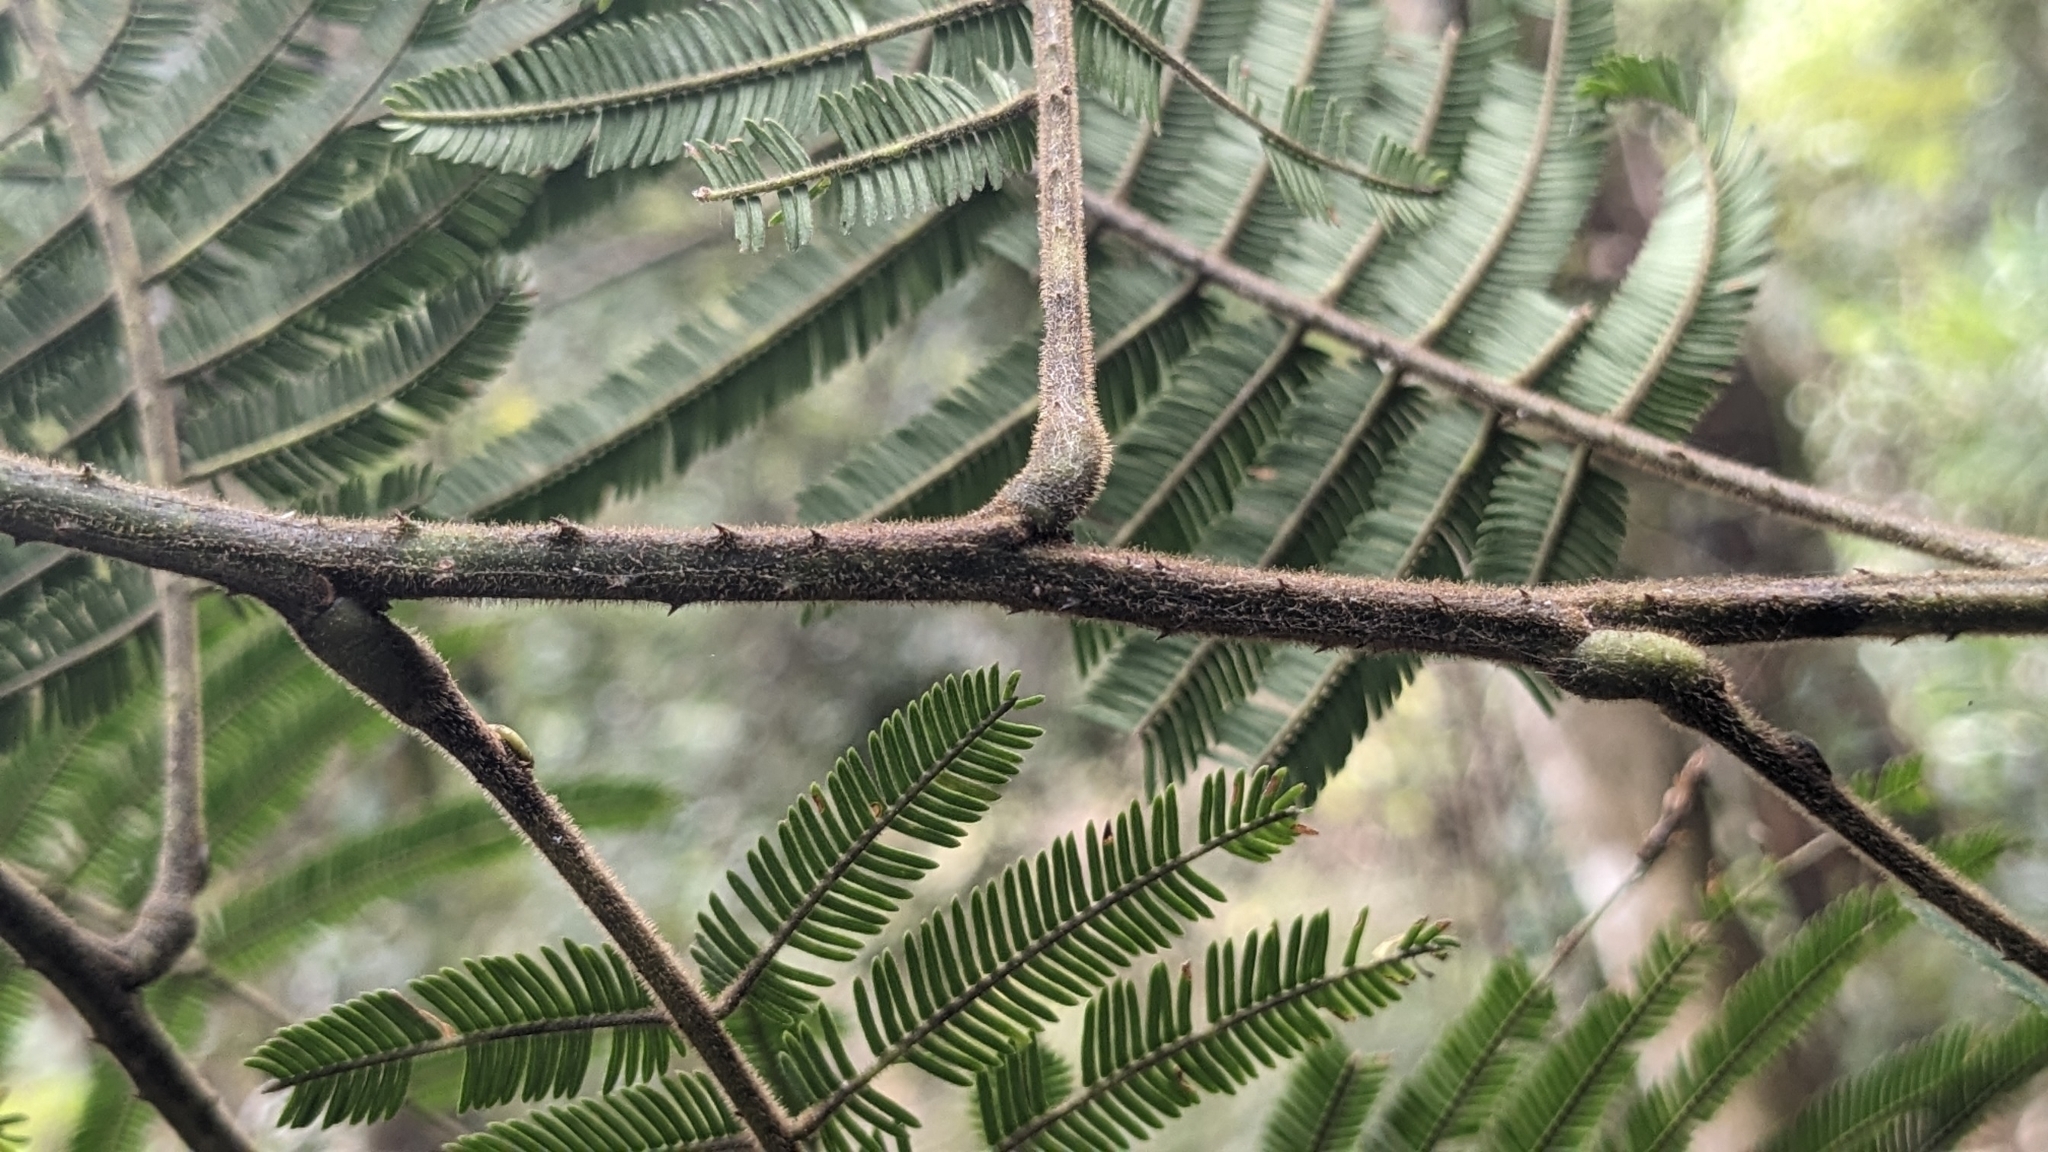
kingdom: Plantae
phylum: Tracheophyta
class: Magnoliopsida
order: Fabales
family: Fabaceae
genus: Senegalia
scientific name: Senegalia merrillii
